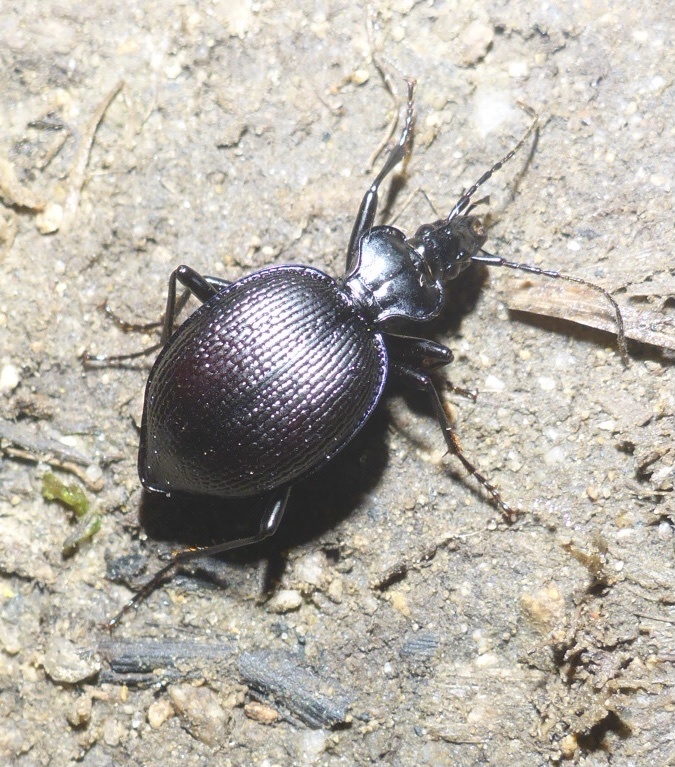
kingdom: Animalia
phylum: Arthropoda
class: Insecta
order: Coleoptera
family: Carabidae
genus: Scaphinotus
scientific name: Scaphinotus interruptus
